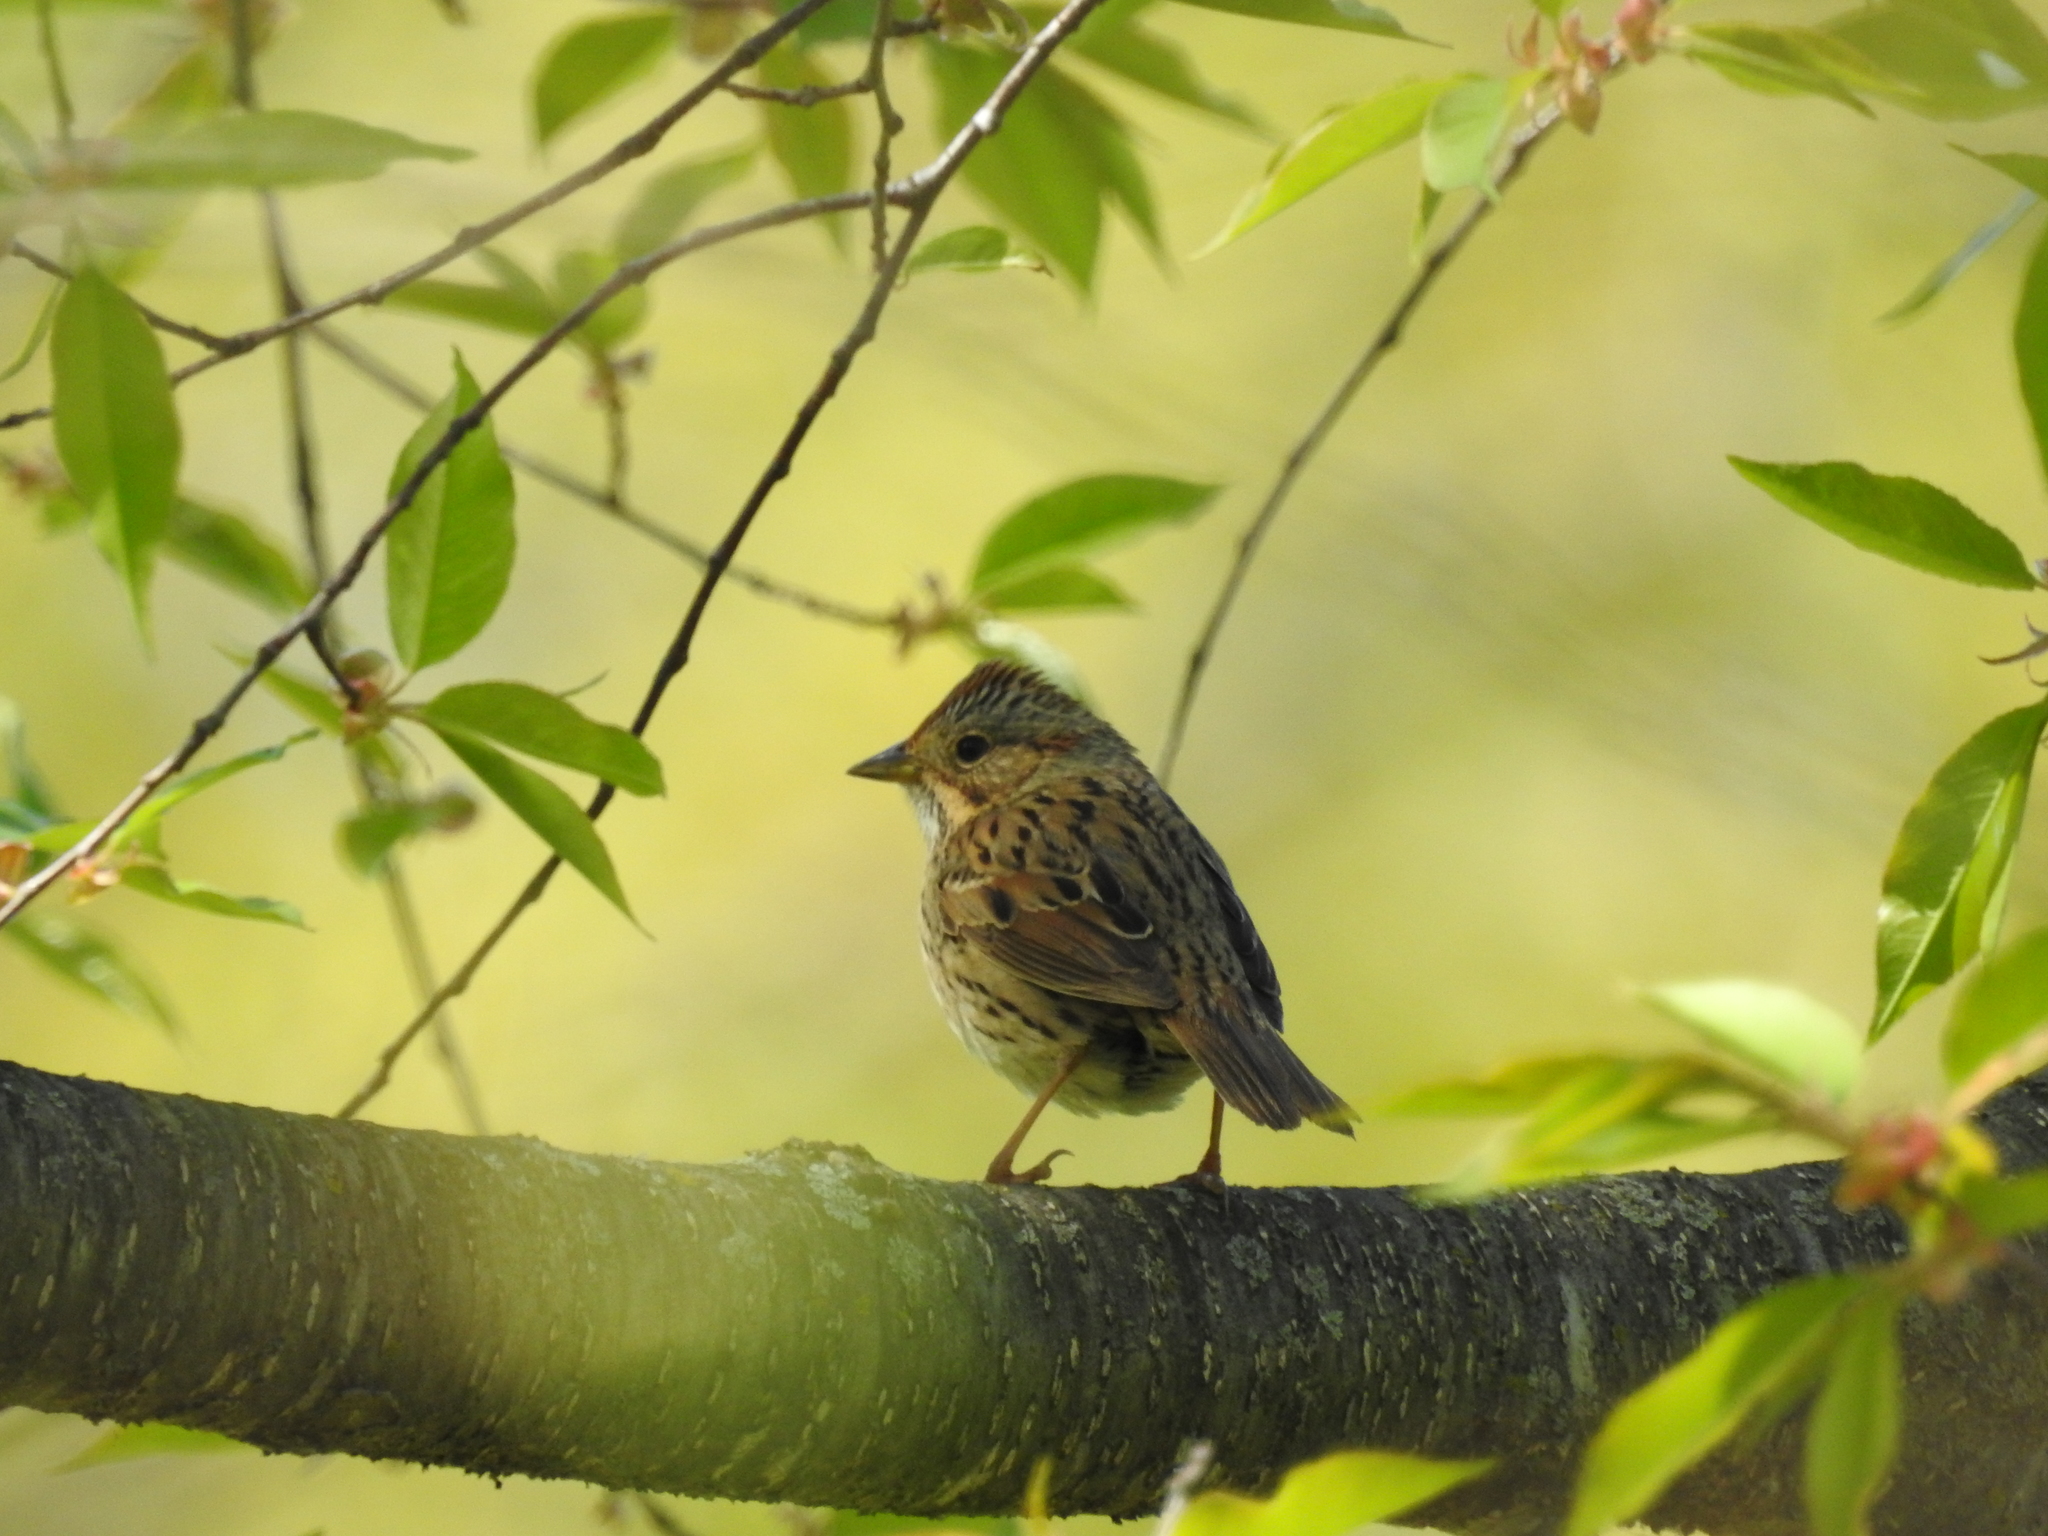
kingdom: Animalia
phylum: Chordata
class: Aves
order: Passeriformes
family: Passerellidae
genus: Melospiza
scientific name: Melospiza lincolnii
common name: Lincoln's sparrow
